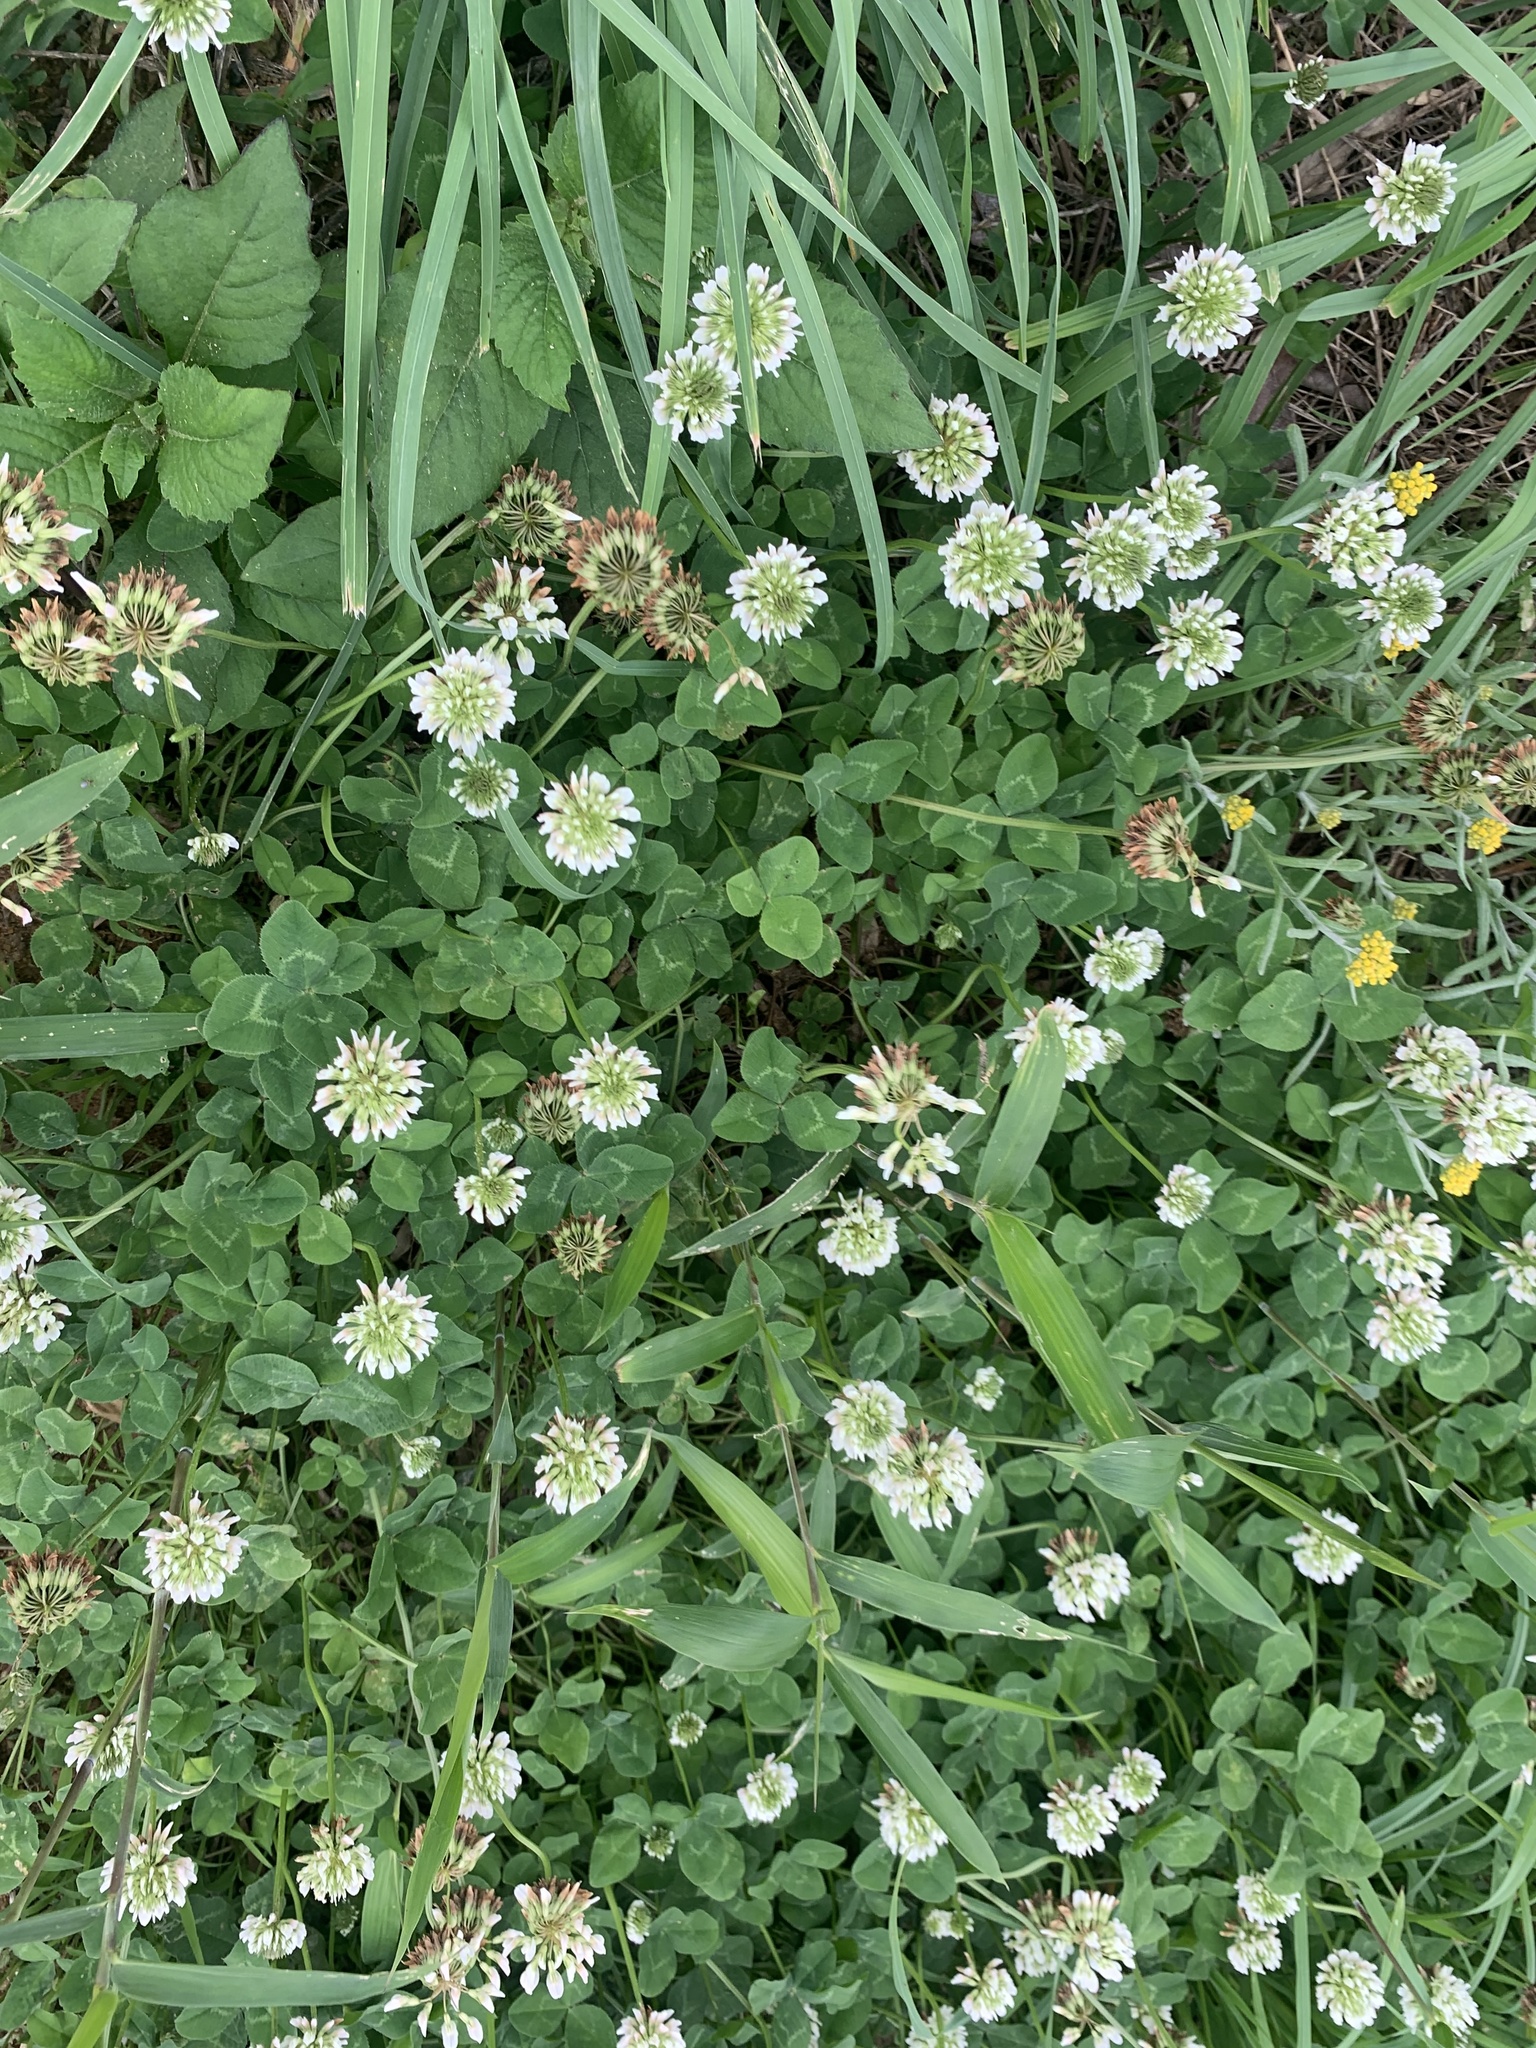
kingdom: Plantae
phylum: Tracheophyta
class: Magnoliopsida
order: Fabales
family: Fabaceae
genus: Trifolium
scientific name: Trifolium repens
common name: White clover
